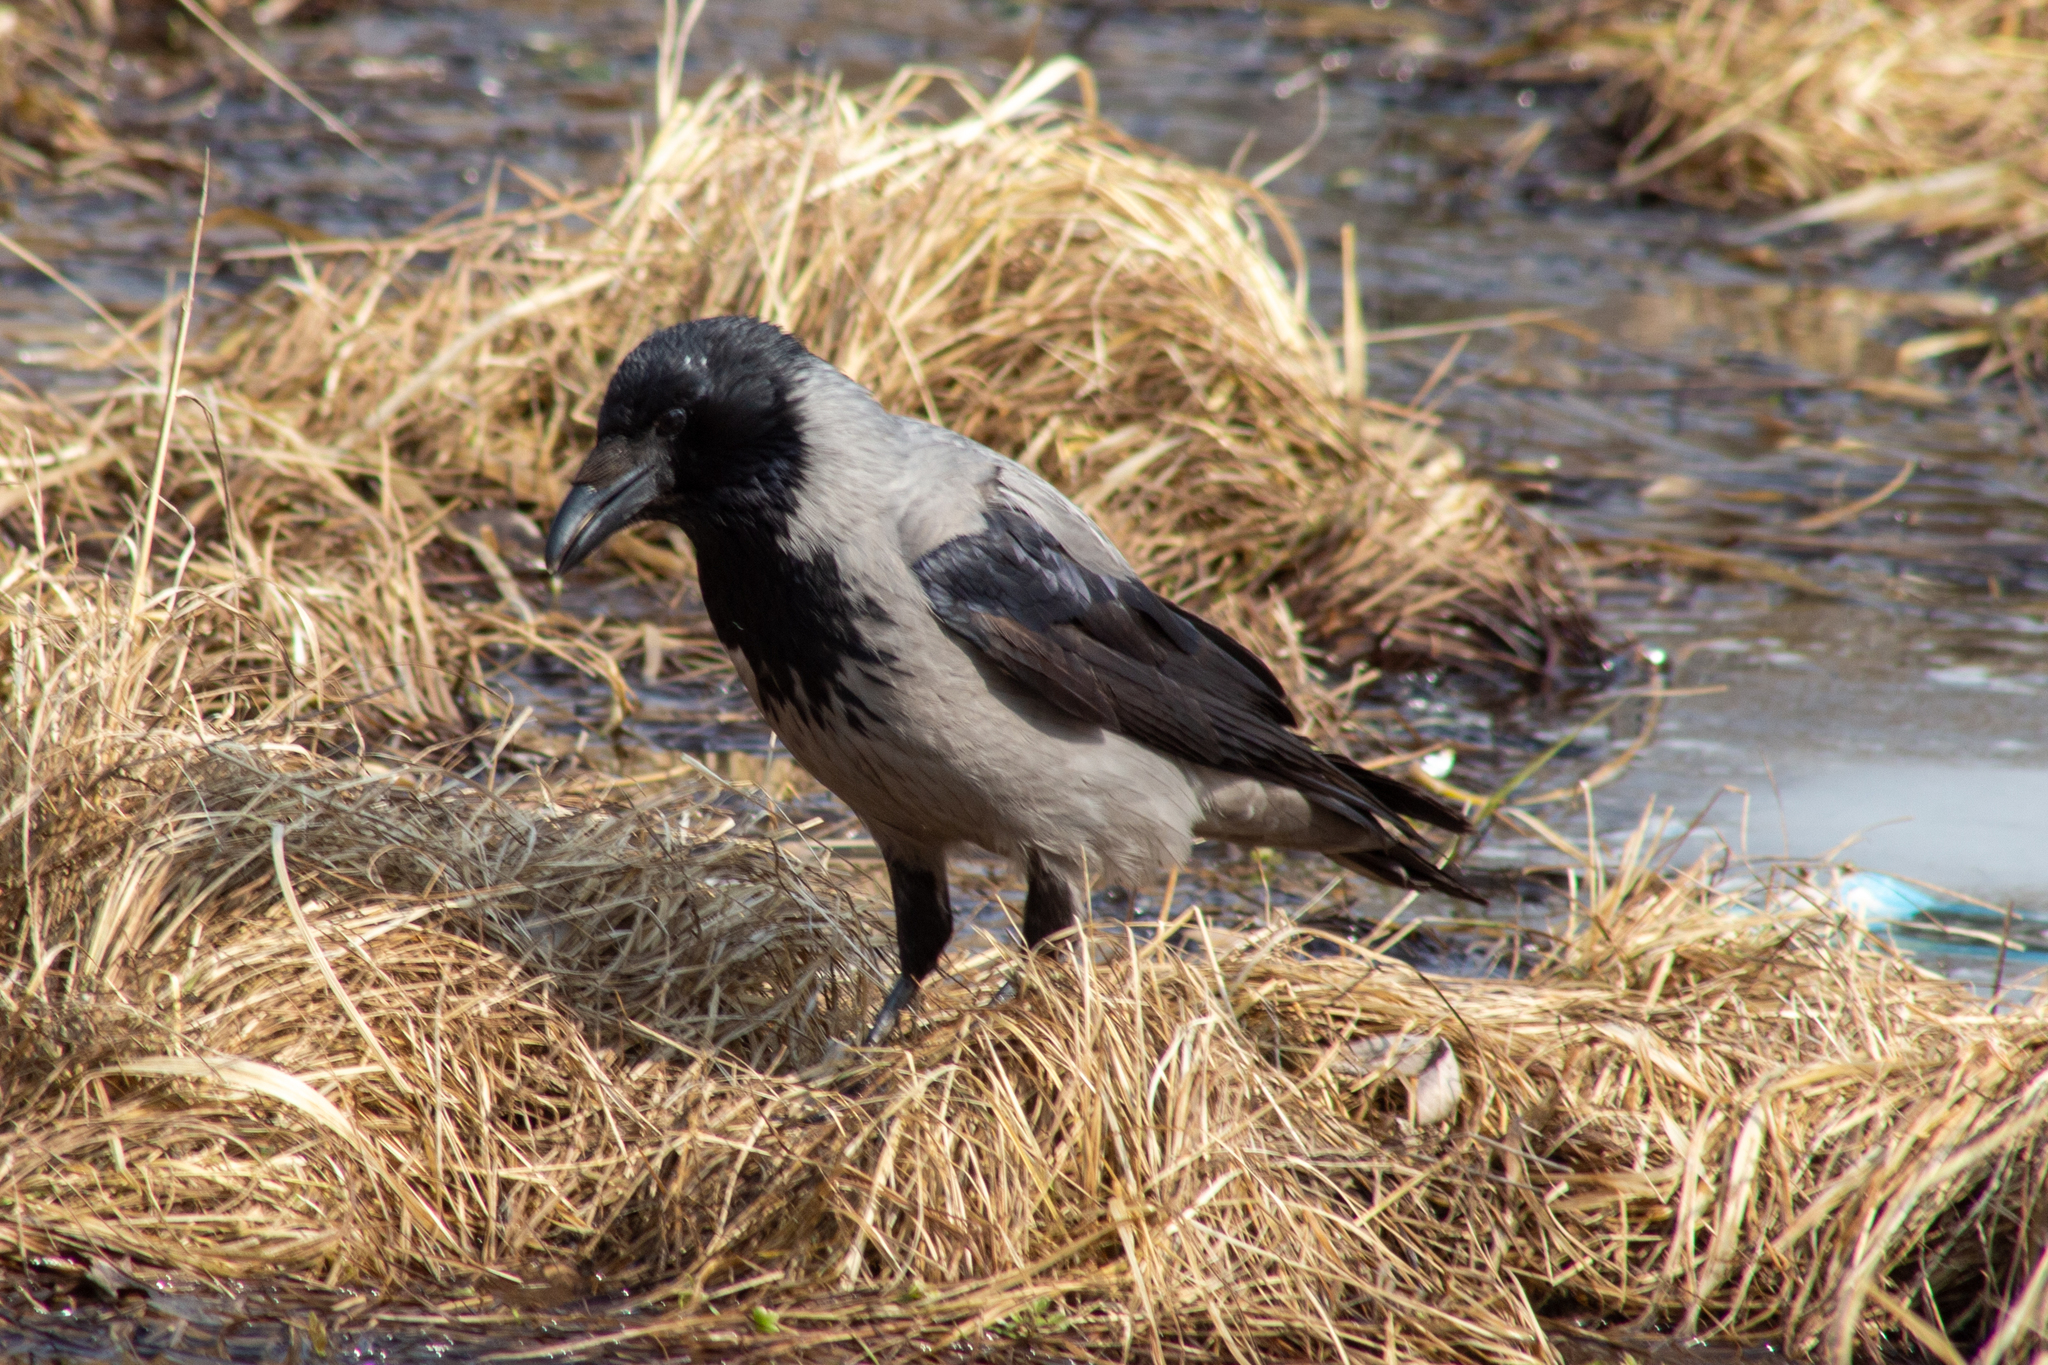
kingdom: Animalia
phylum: Chordata
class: Aves
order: Passeriformes
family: Corvidae
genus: Corvus
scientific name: Corvus cornix
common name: Hooded crow
